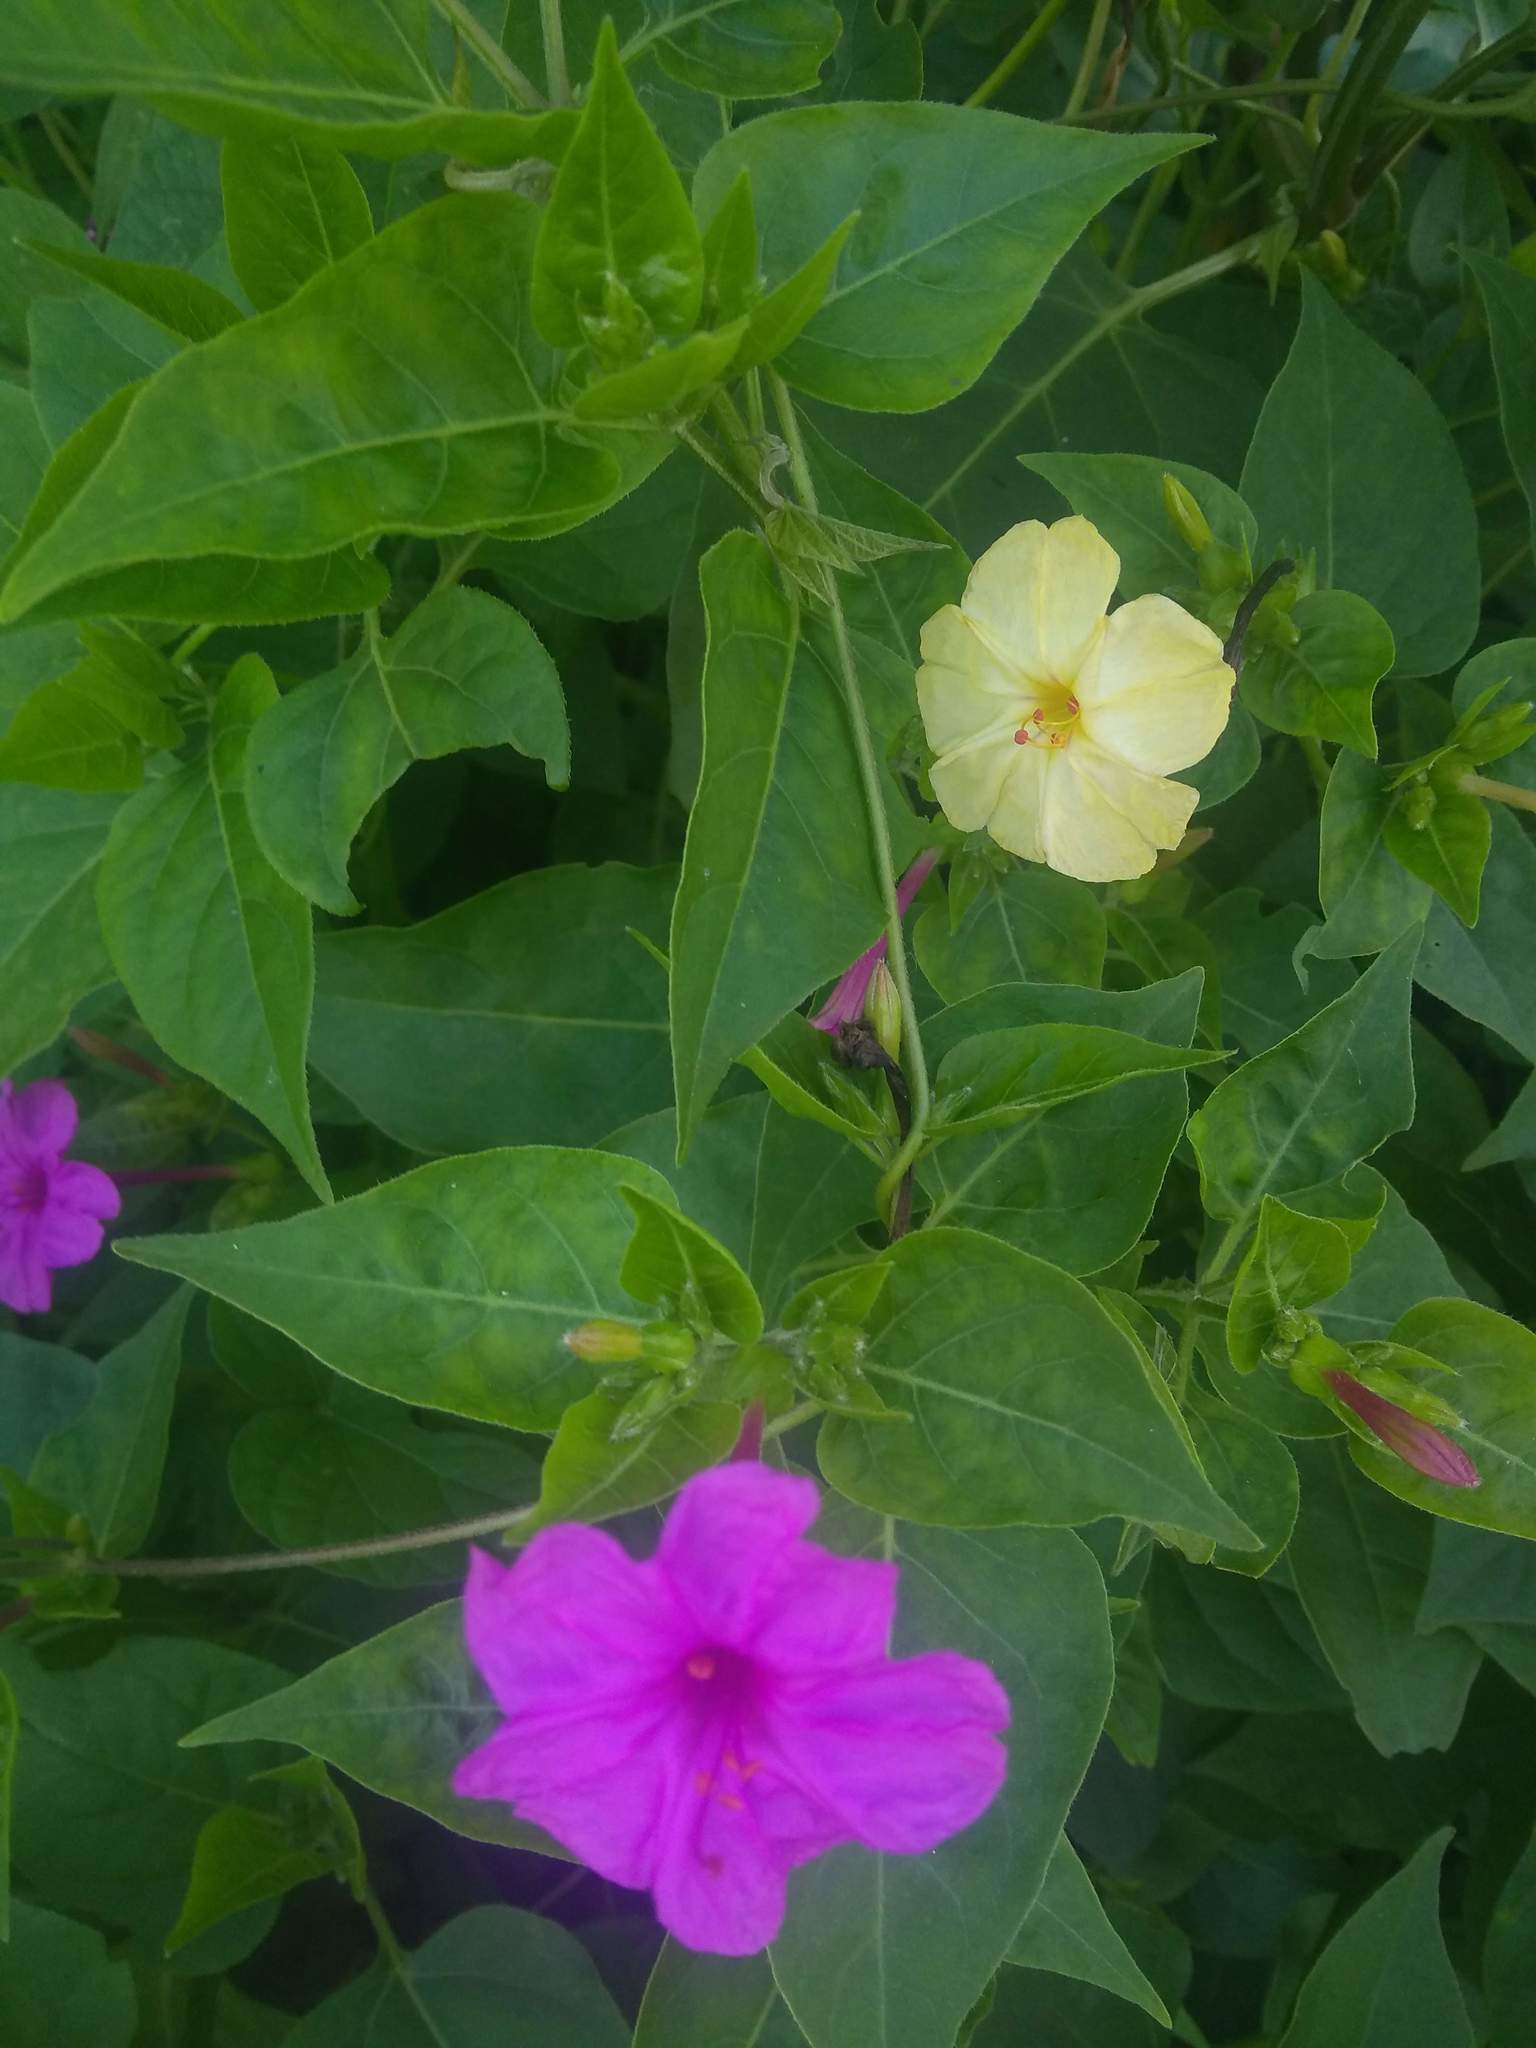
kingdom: Plantae
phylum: Tracheophyta
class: Magnoliopsida
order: Caryophyllales
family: Nyctaginaceae
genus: Mirabilis
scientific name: Mirabilis jalapa
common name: Marvel-of-peru
